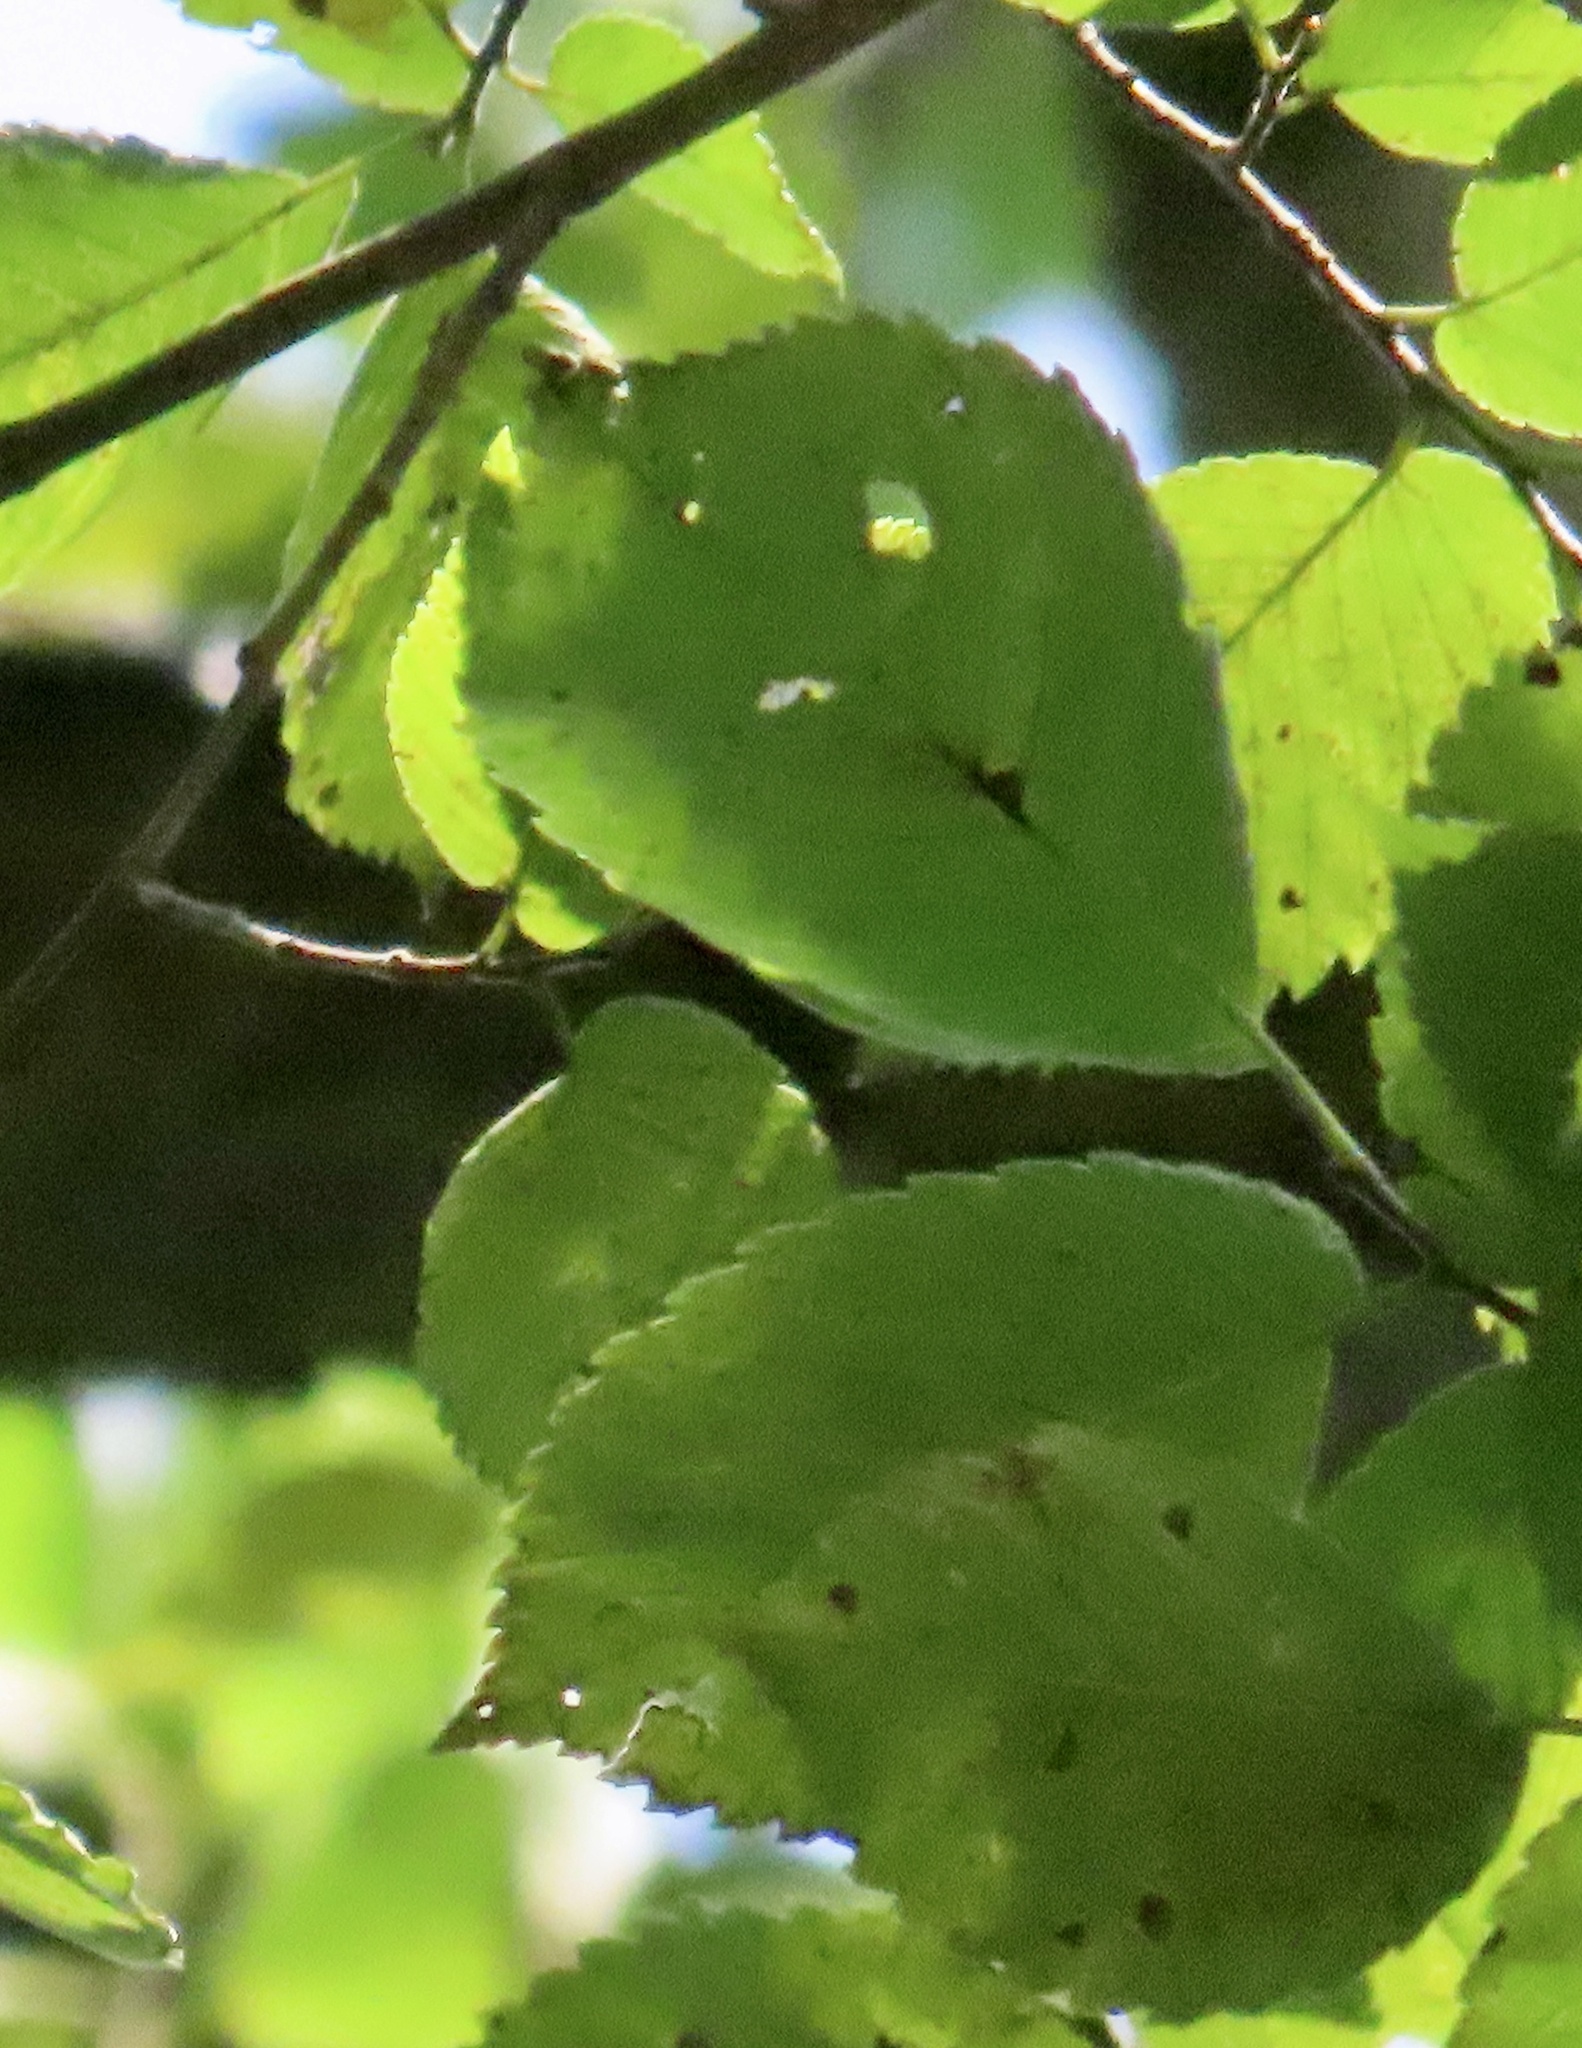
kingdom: Plantae
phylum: Tracheophyta
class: Magnoliopsida
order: Rosales
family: Ulmaceae
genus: Ulmus
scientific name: Ulmus americana
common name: American elm
